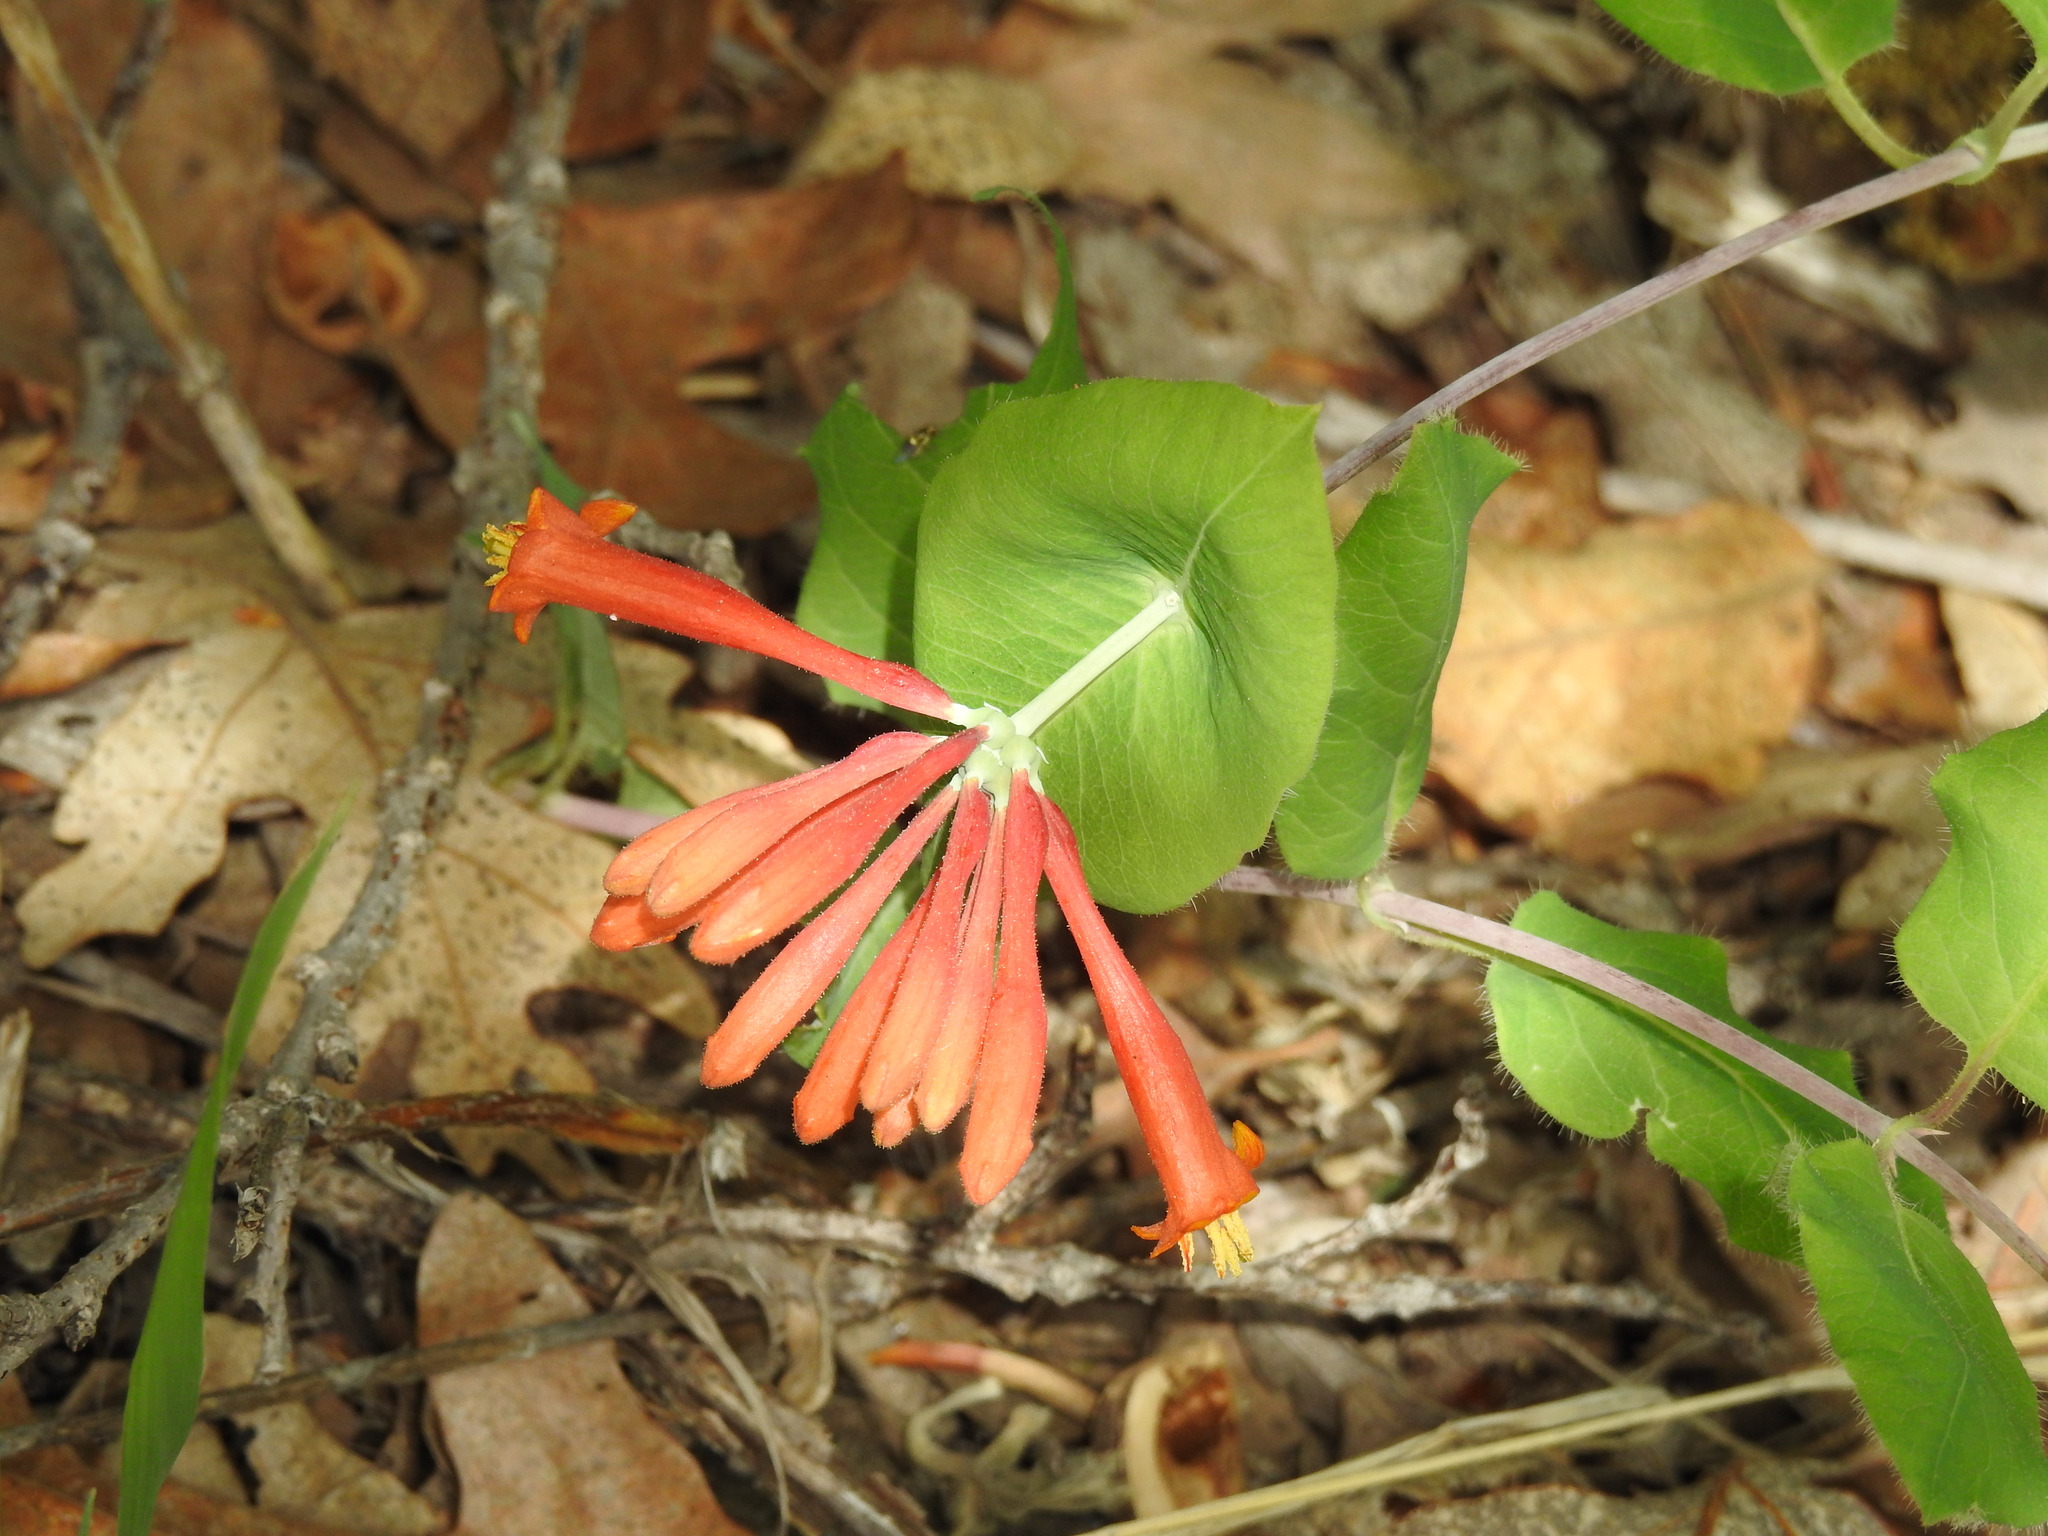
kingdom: Plantae
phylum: Tracheophyta
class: Magnoliopsida
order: Dipsacales
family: Caprifoliaceae
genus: Lonicera
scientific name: Lonicera arizonica
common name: Arizona honeysuckle
